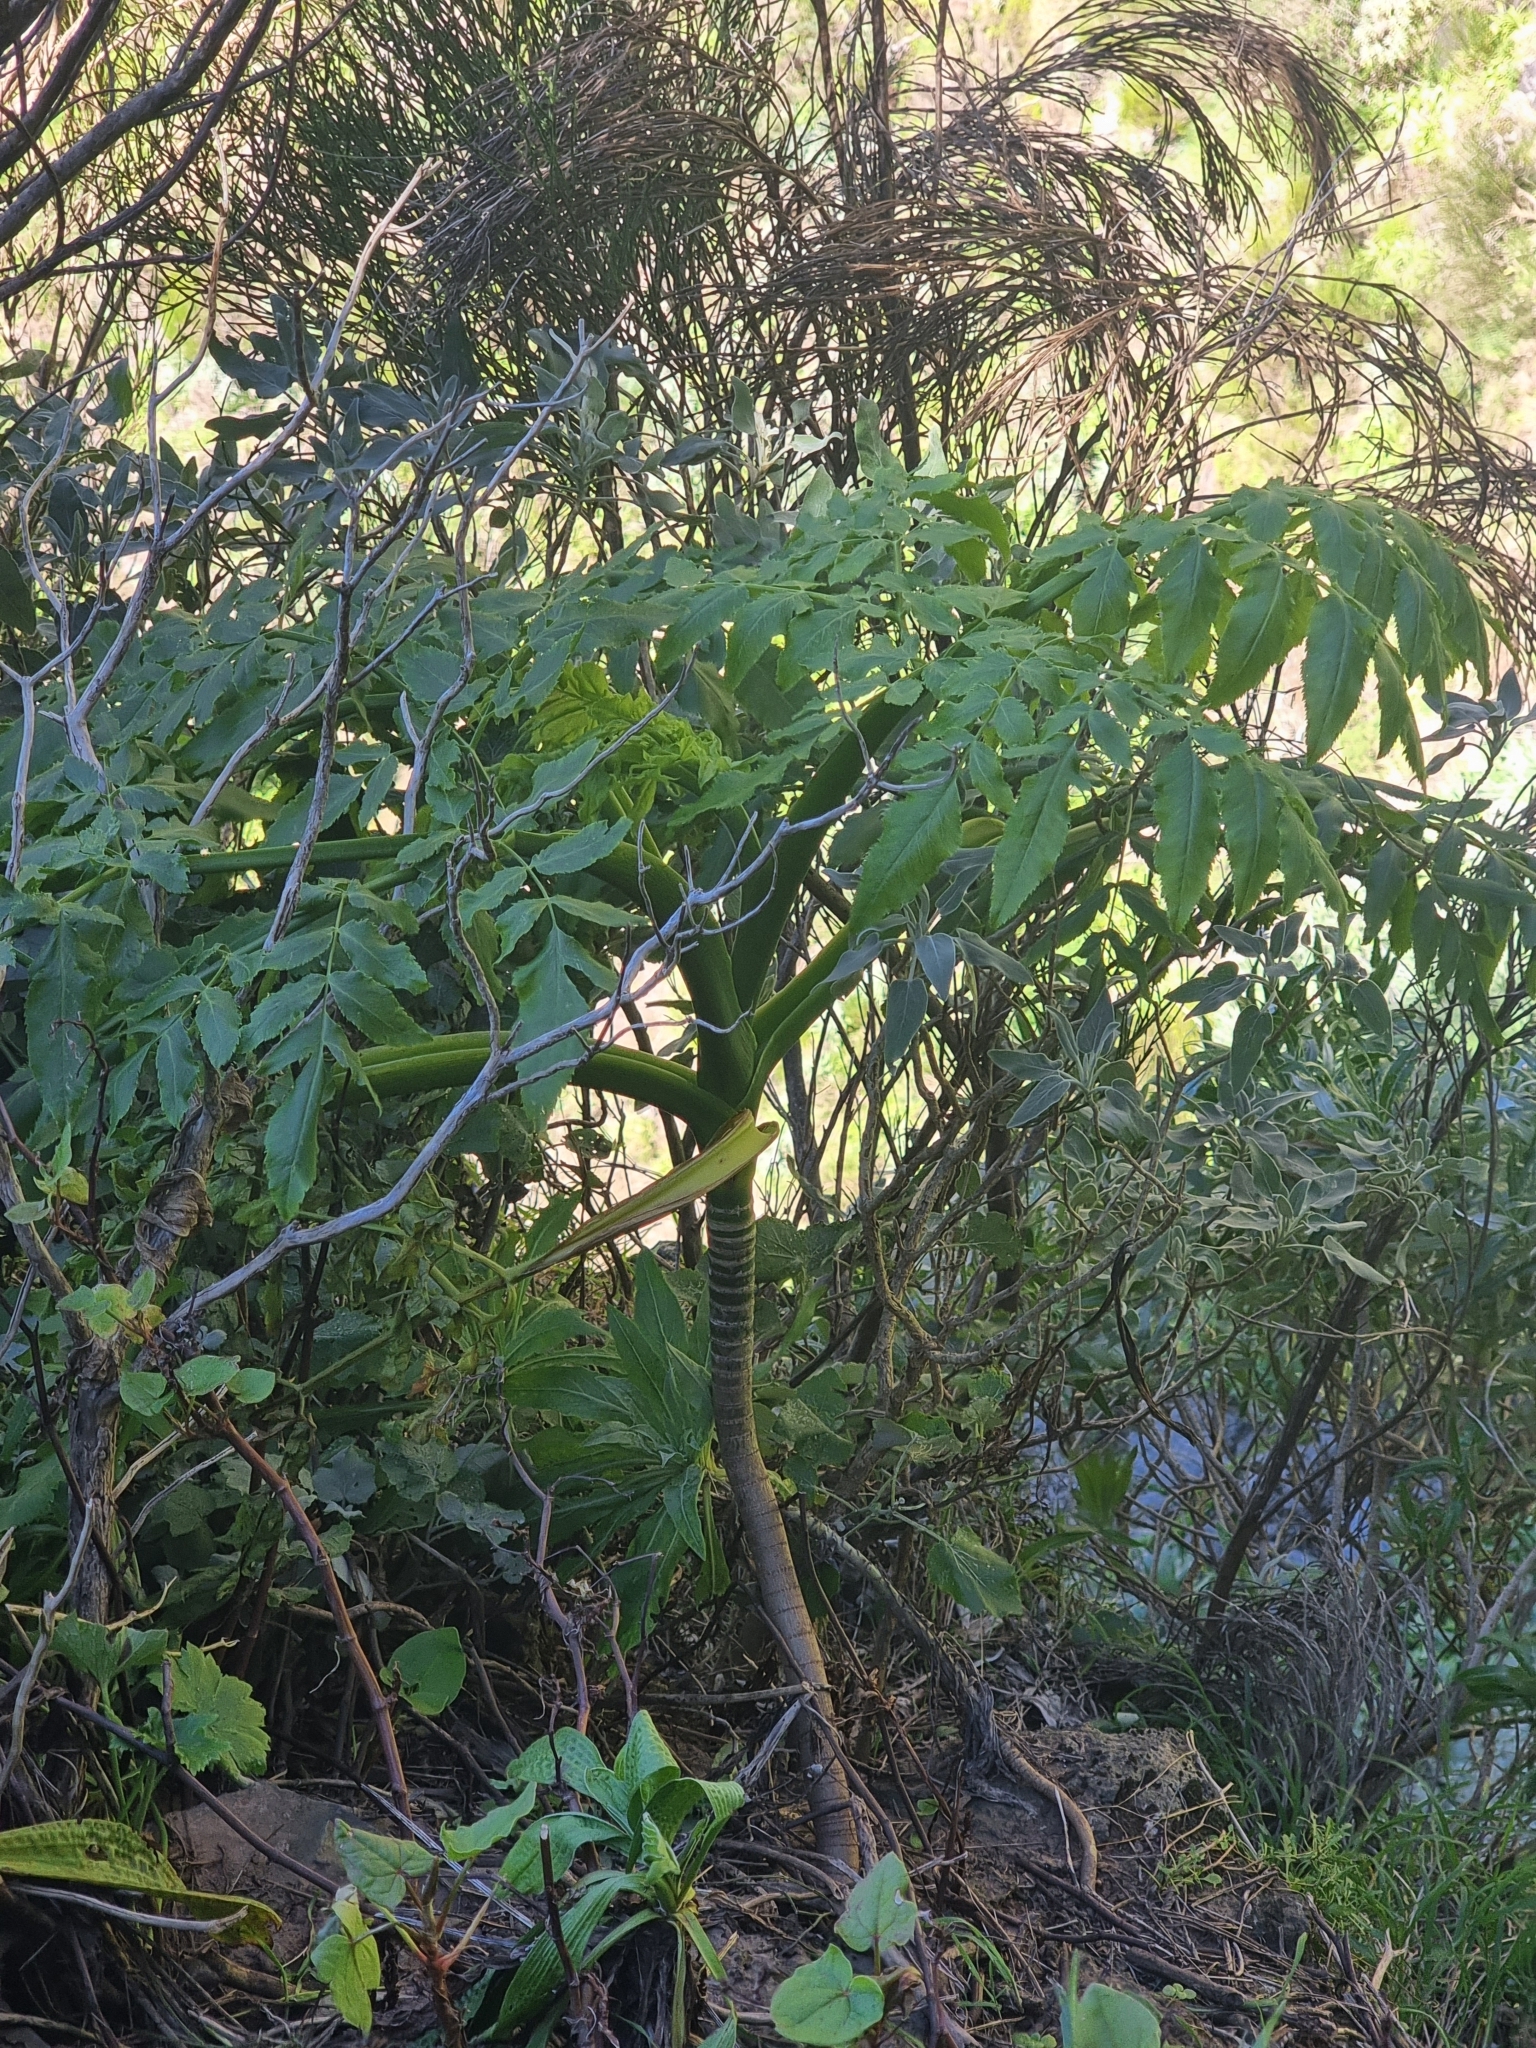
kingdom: Plantae
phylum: Tracheophyta
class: Magnoliopsida
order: Apiales
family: Apiaceae
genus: Daucus
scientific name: Daucus decipiens
